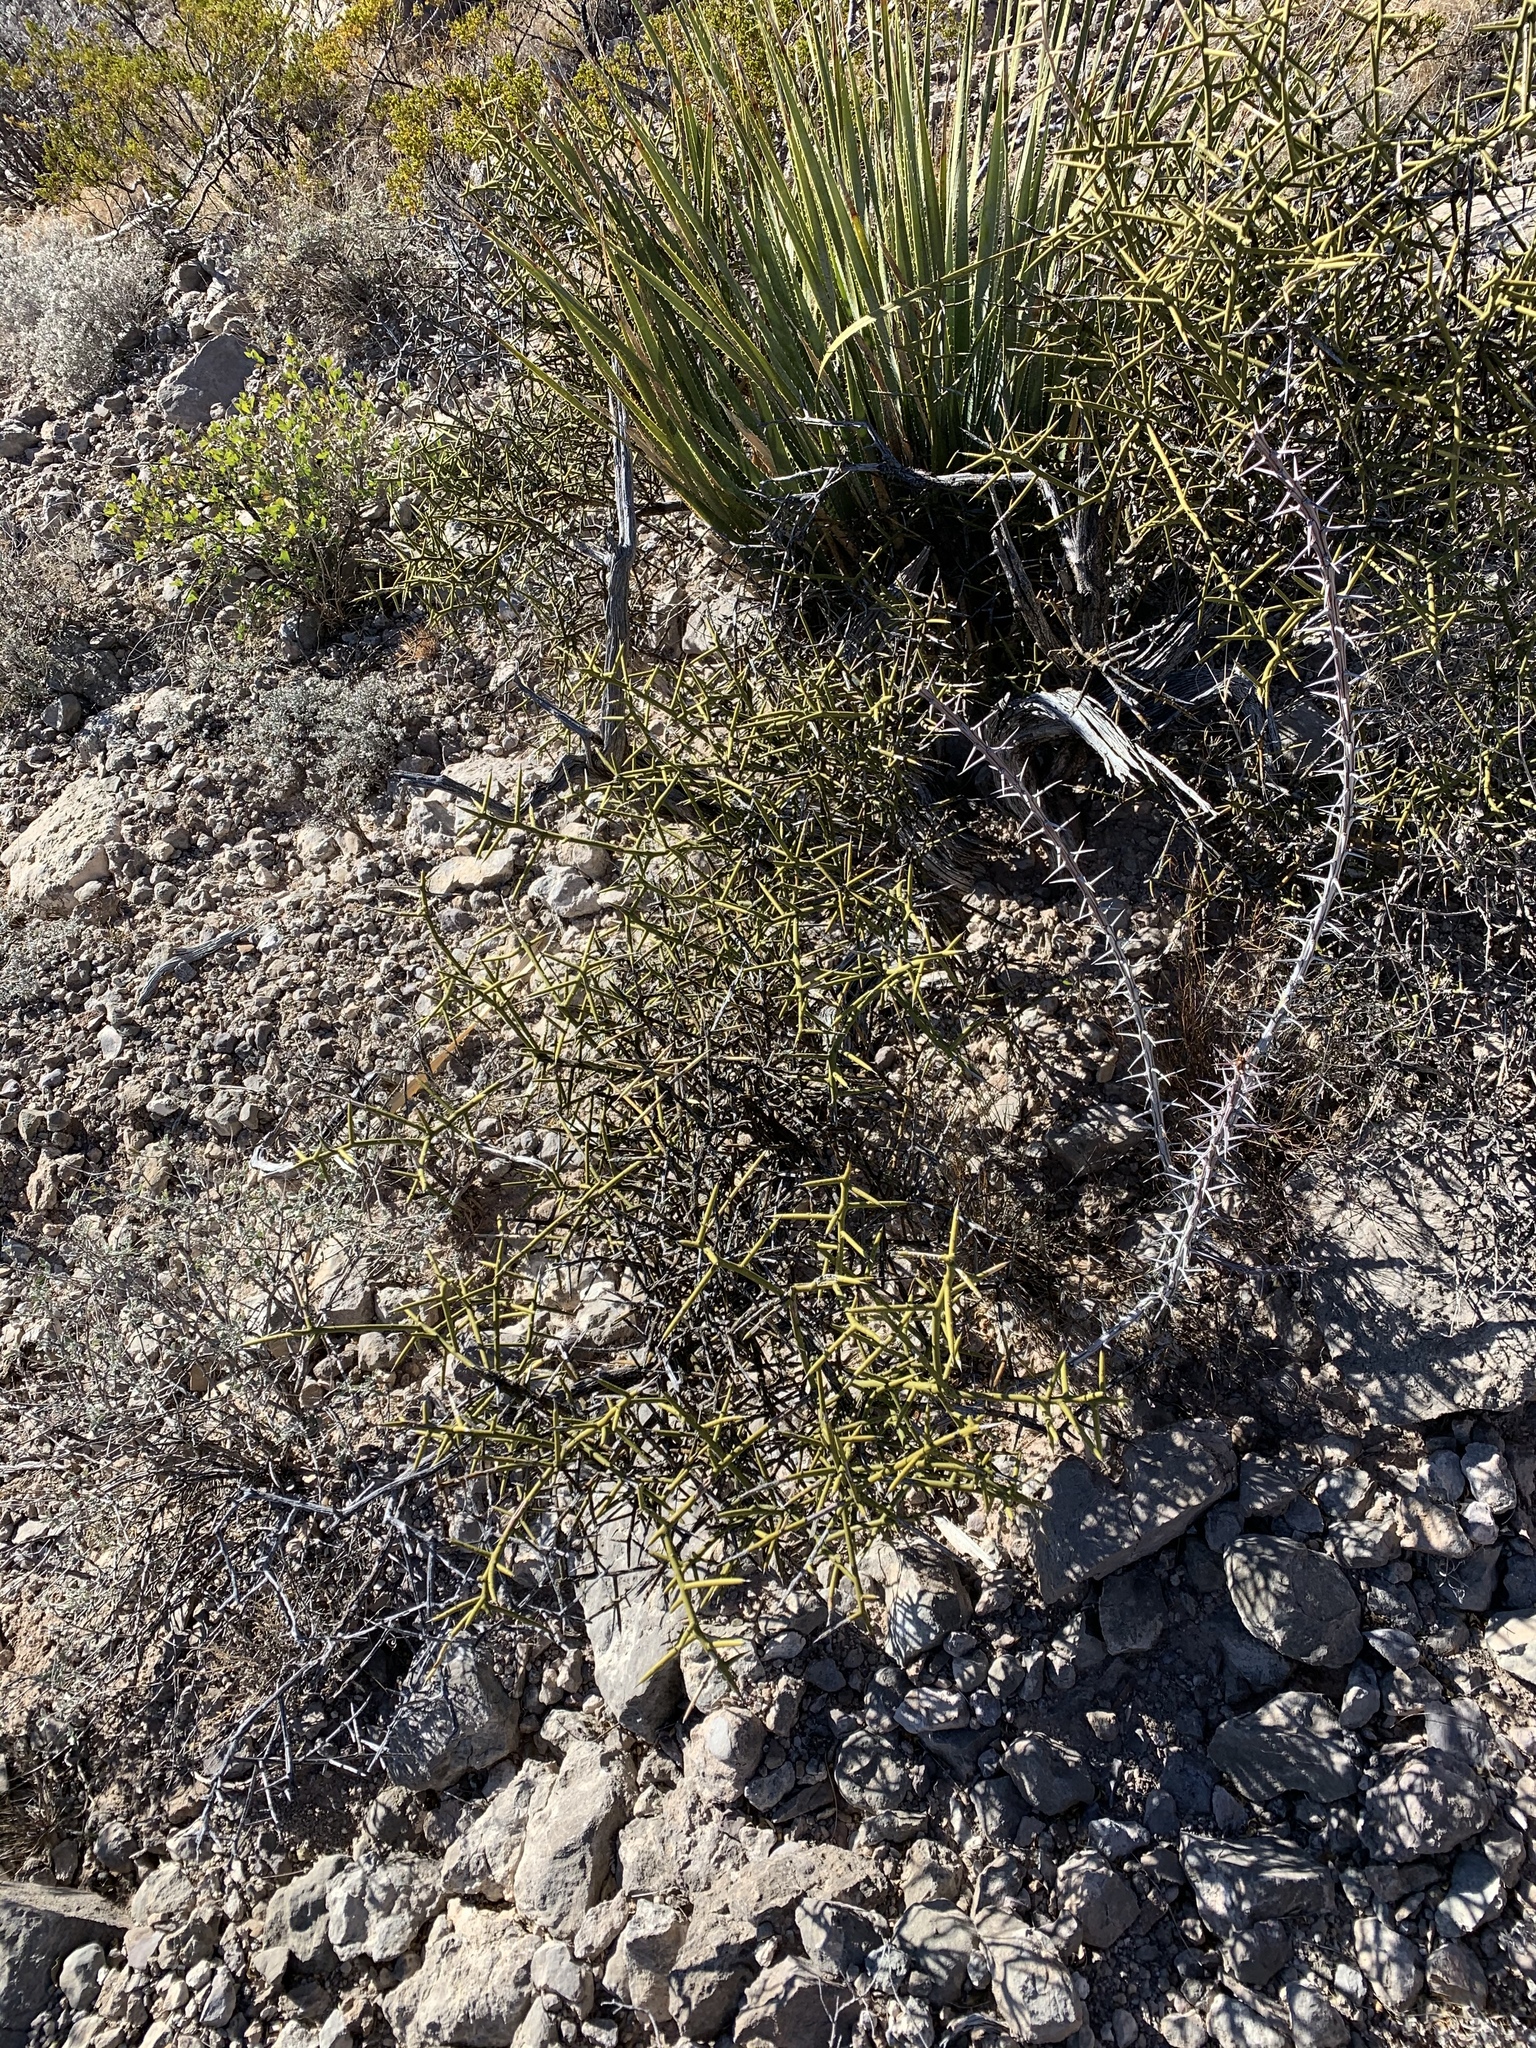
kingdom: Plantae
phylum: Tracheophyta
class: Magnoliopsida
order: Brassicales
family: Koeberliniaceae
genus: Koeberlinia
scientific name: Koeberlinia spinosa
